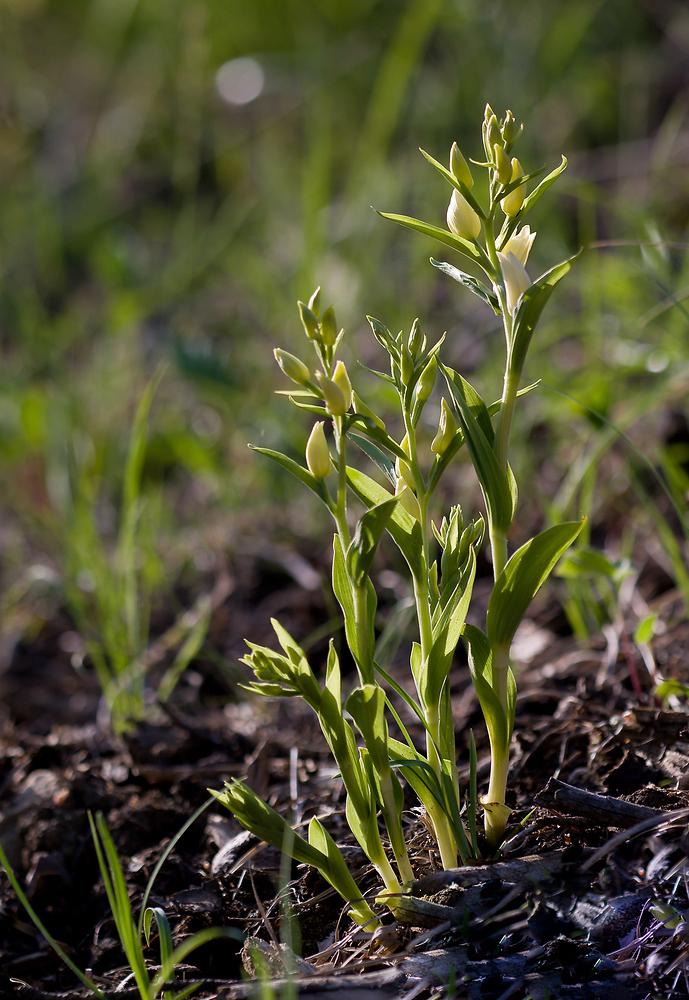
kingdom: Plantae
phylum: Tracheophyta
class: Liliopsida
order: Asparagales
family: Orchidaceae
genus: Cephalanthera
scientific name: Cephalanthera damasonium
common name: White helleborine
